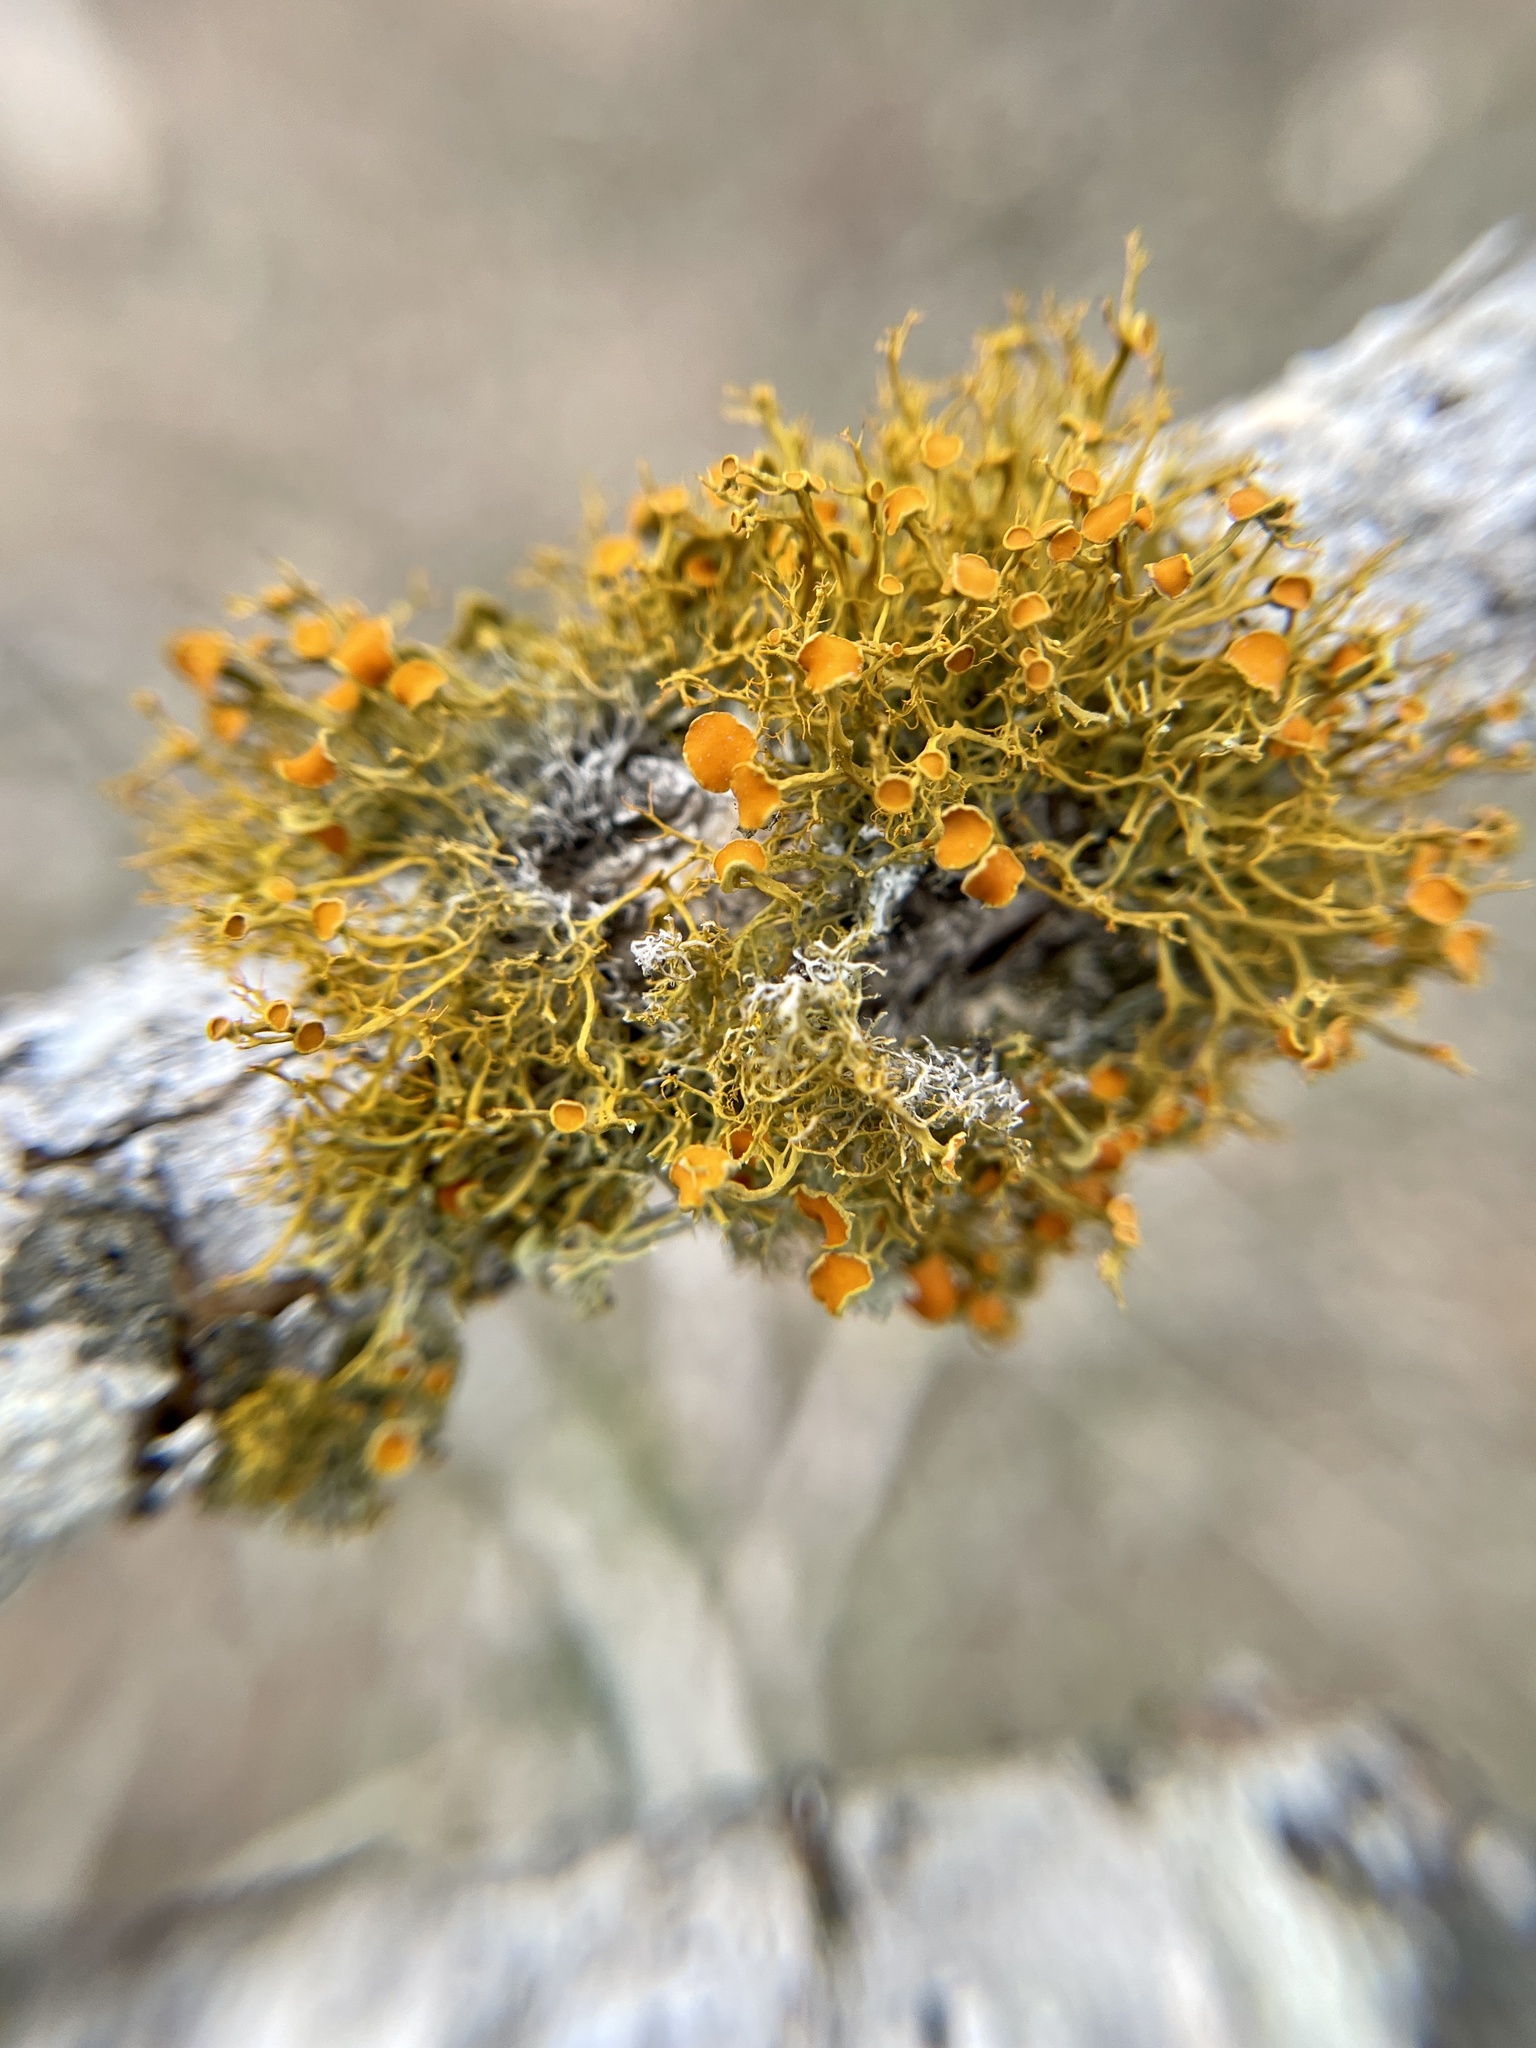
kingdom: Fungi
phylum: Ascomycota
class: Lecanoromycetes
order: Teloschistales
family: Teloschistaceae
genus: Teloschistes
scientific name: Teloschistes exilis
